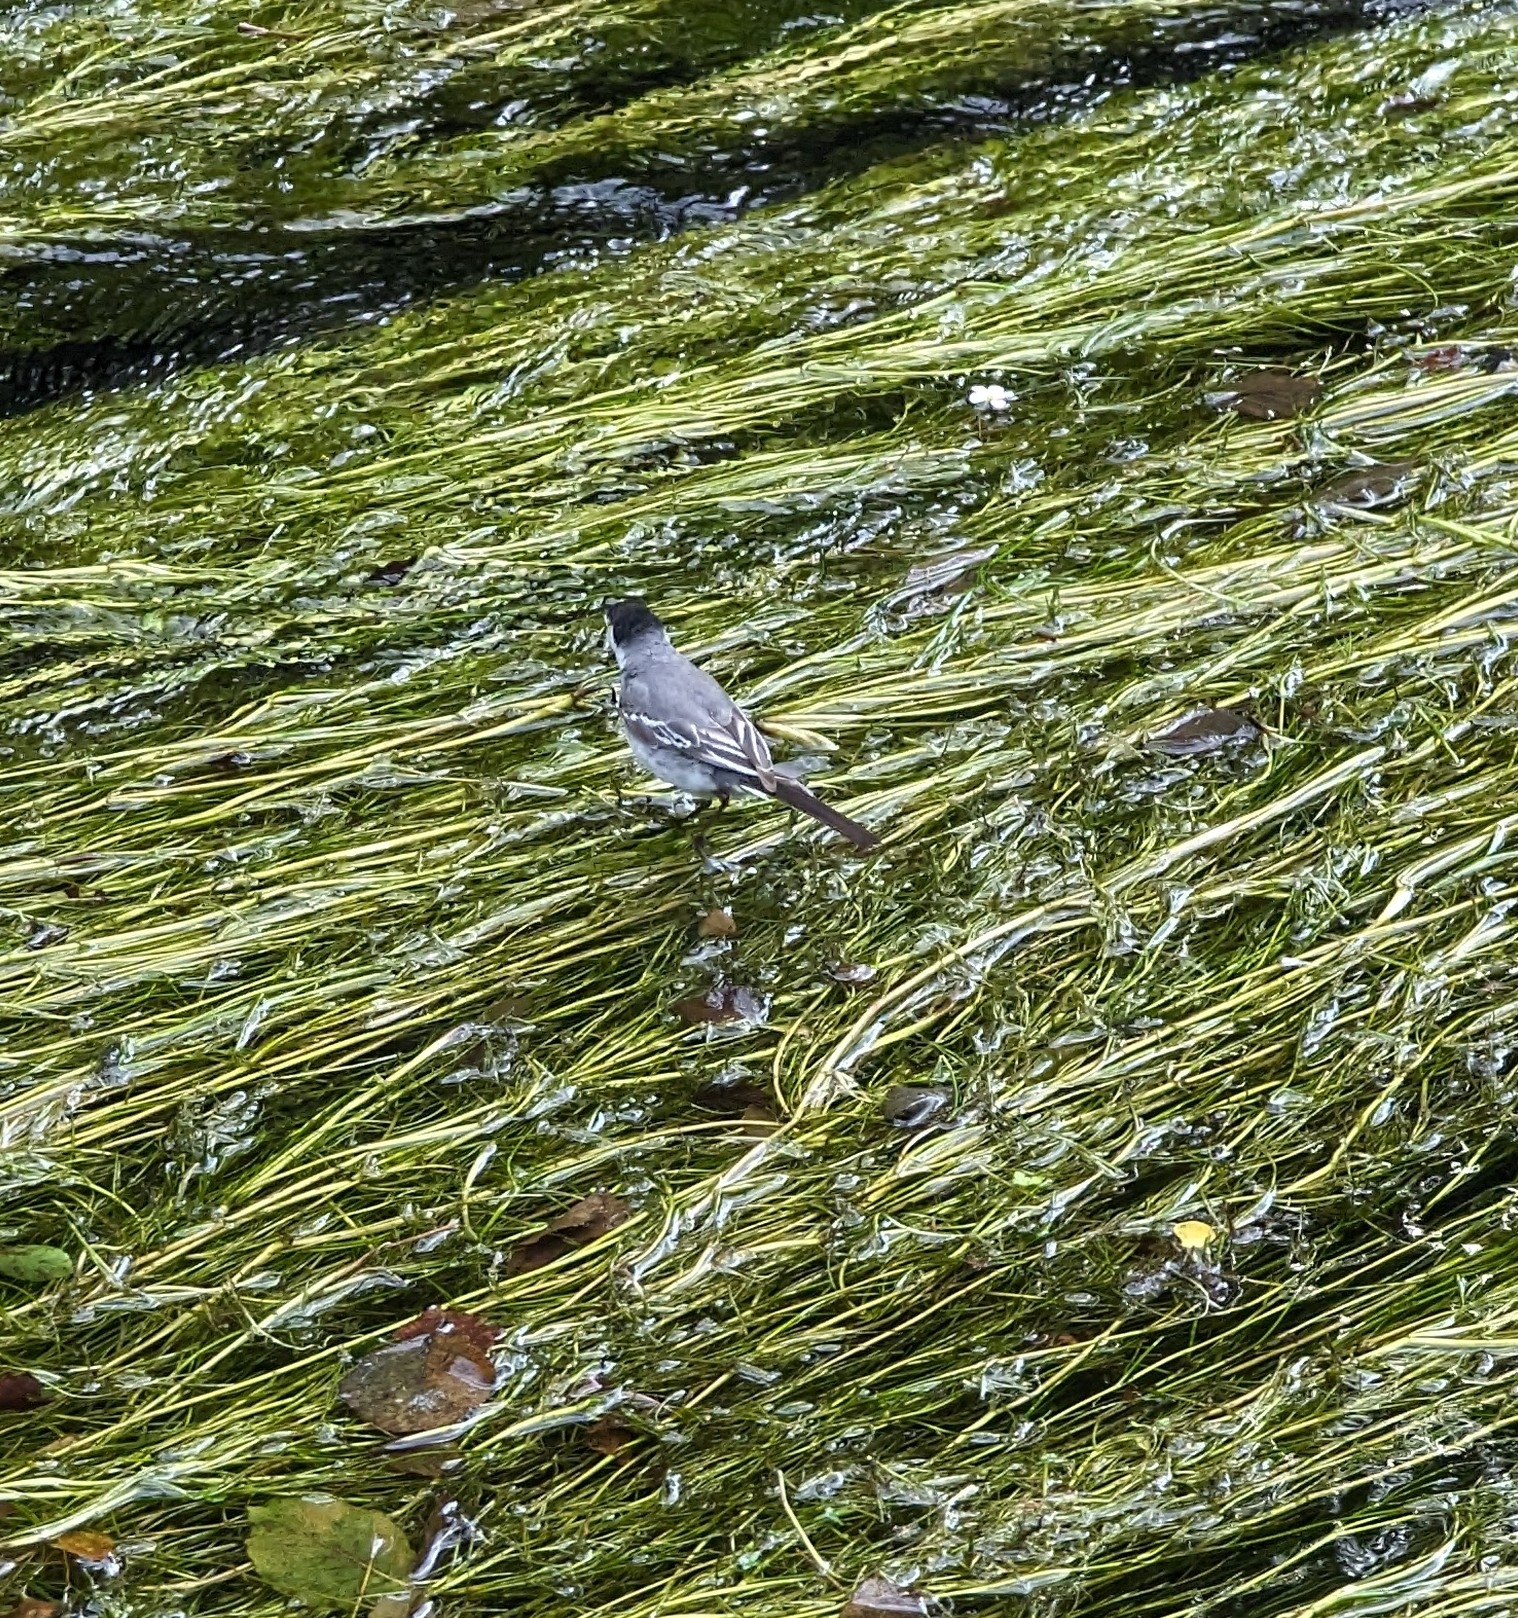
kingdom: Animalia
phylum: Chordata
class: Aves
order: Passeriformes
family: Motacillidae
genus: Motacilla
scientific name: Motacilla alba
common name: White wagtail
